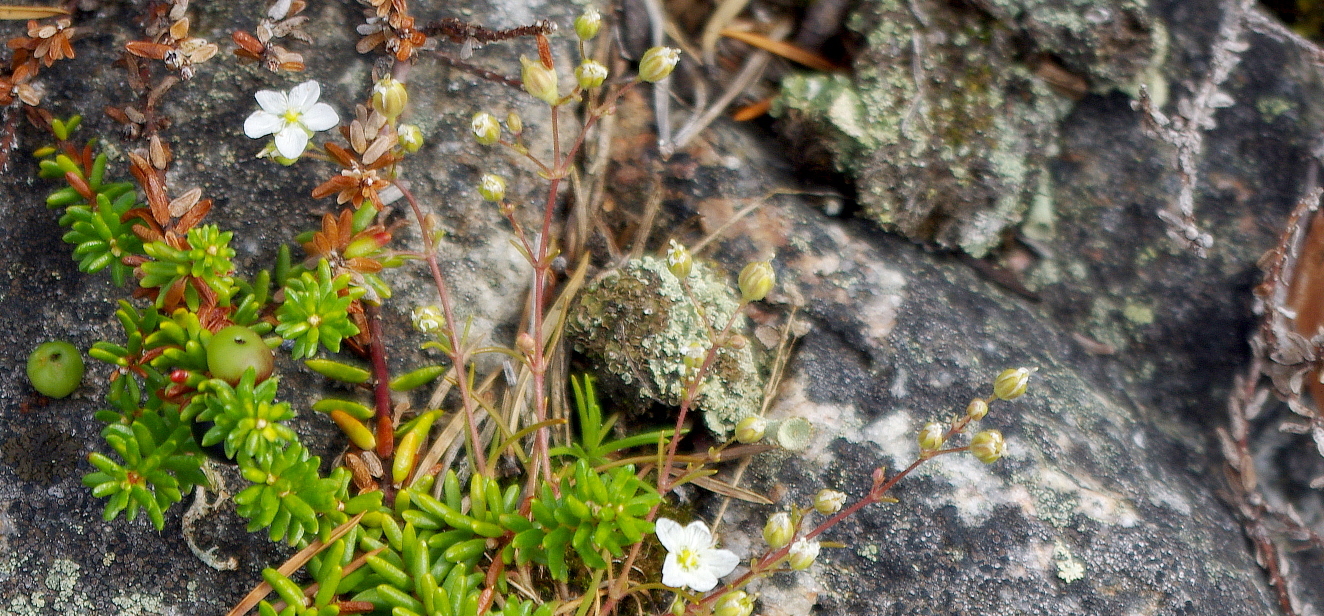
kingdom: Plantae
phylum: Tracheophyta
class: Magnoliopsida
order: Caryophyllales
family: Caryophyllaceae
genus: Sagina
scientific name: Sagina nodosa
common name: Knotted pearlwort
